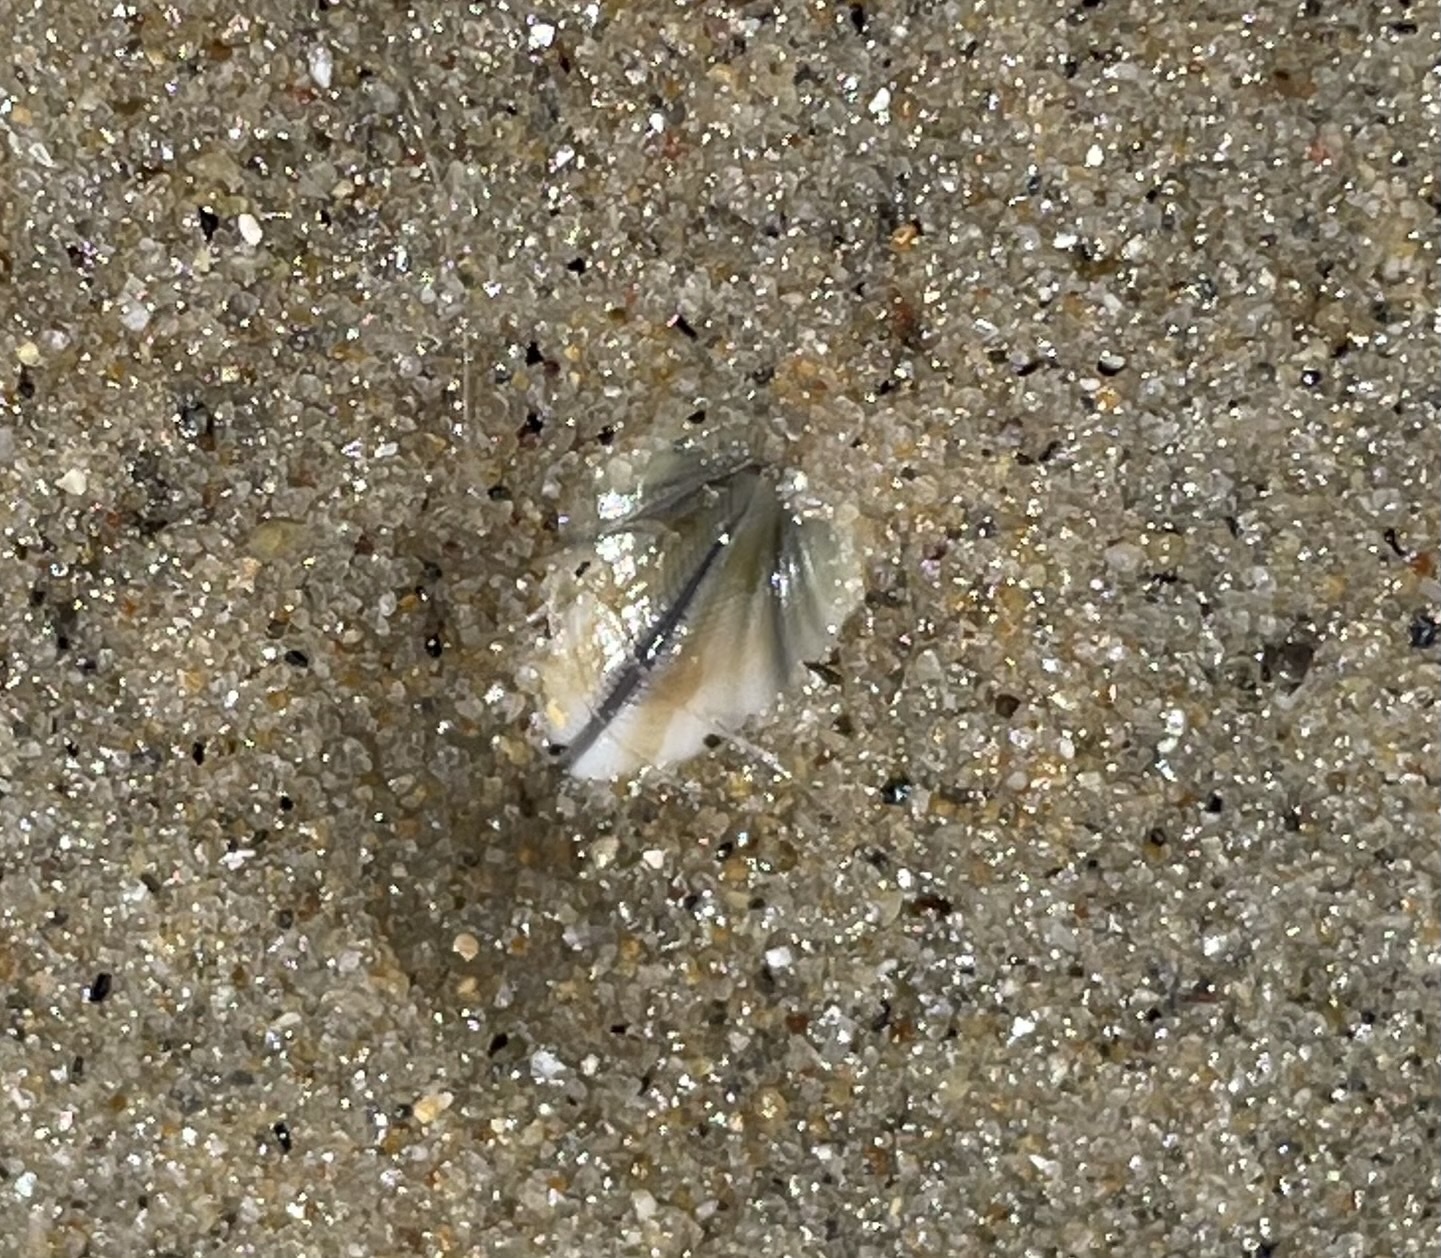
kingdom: Animalia
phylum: Mollusca
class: Bivalvia
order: Cardiida
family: Donacidae
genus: Donax
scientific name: Donax gouldii
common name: Gould beanclam
